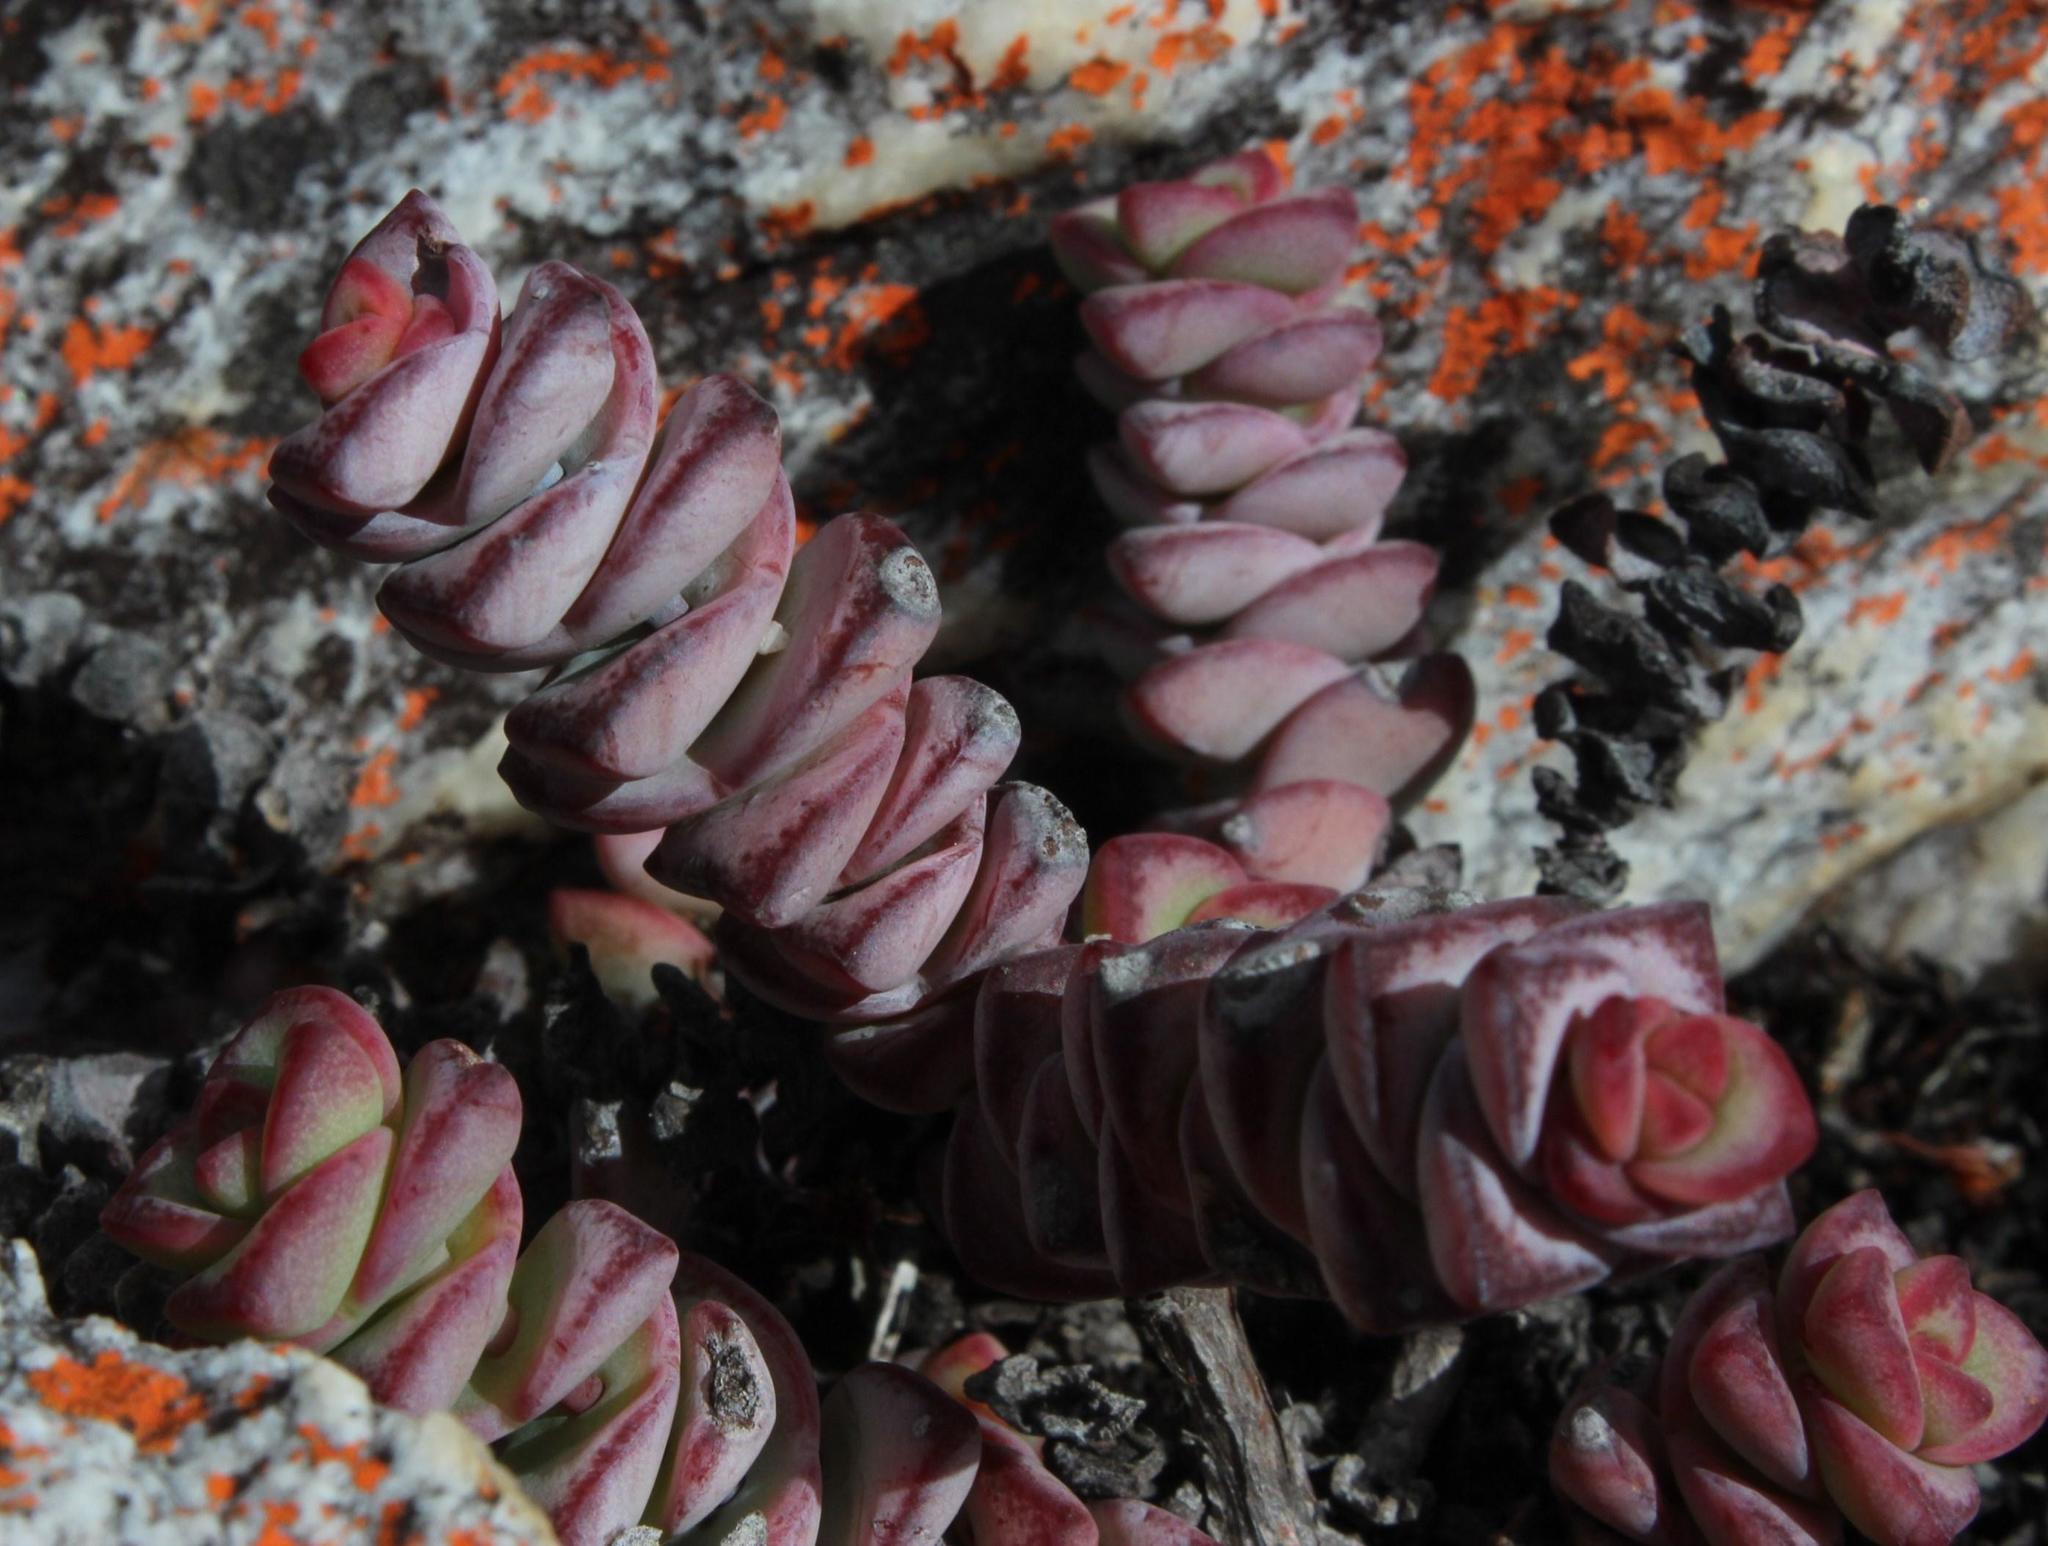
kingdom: Plantae
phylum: Tracheophyta
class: Magnoliopsida
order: Saxifragales
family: Crassulaceae
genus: Crassula
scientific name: Crassula rupestris
